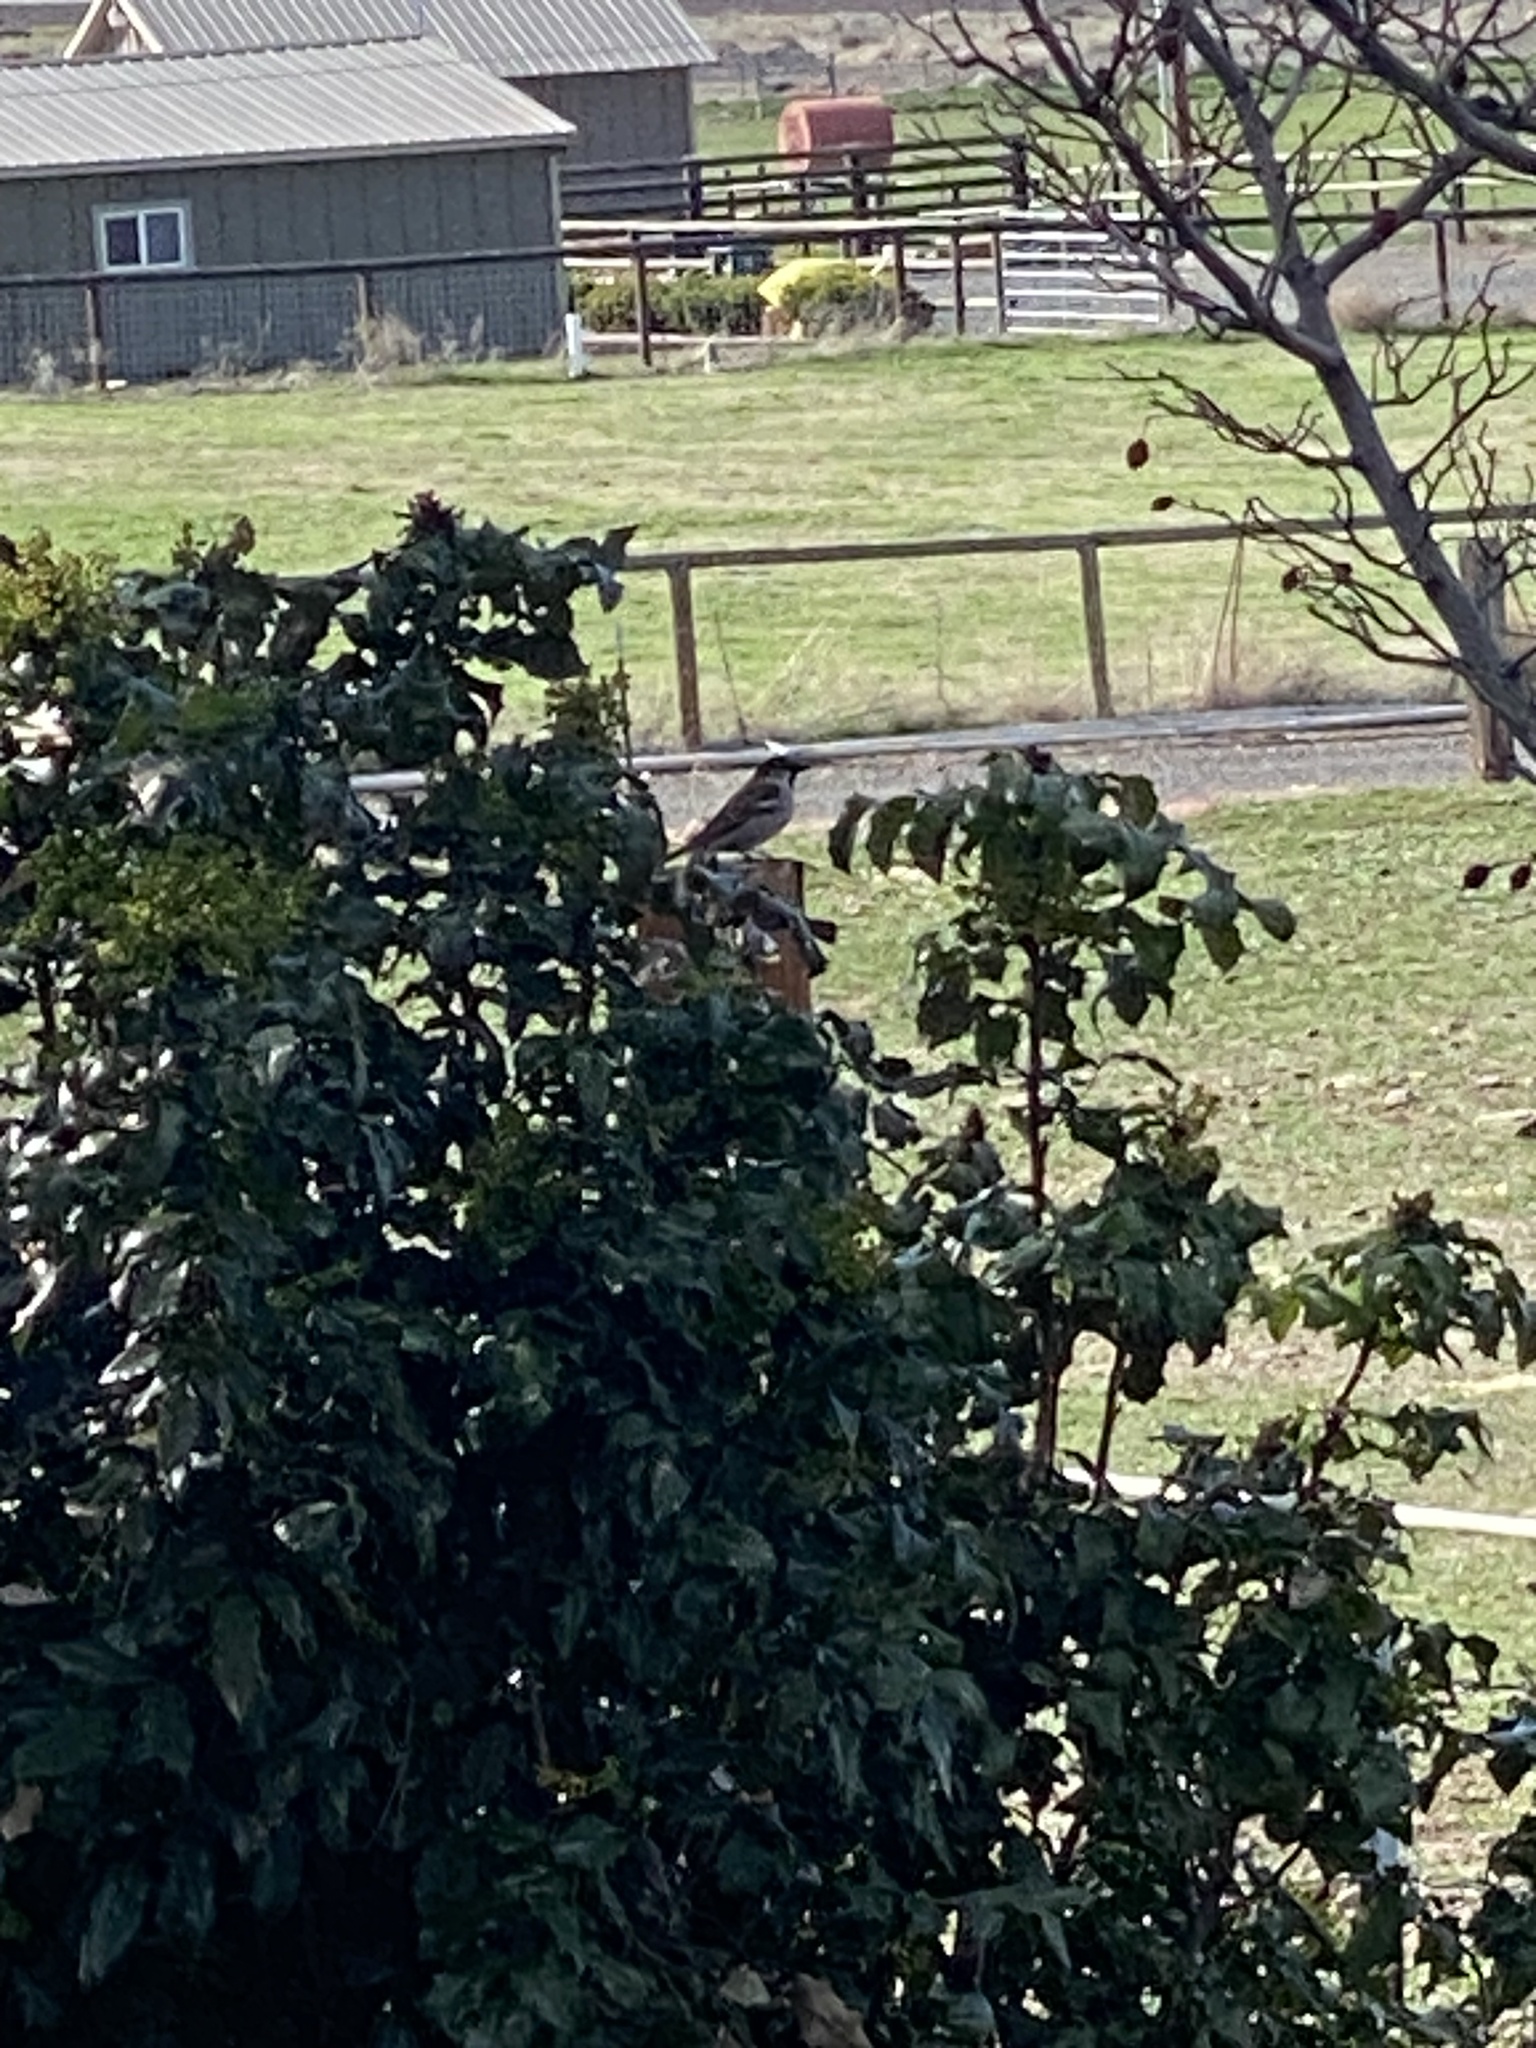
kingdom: Animalia
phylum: Chordata
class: Aves
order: Passeriformes
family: Passeridae
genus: Passer
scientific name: Passer domesticus
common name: House sparrow
